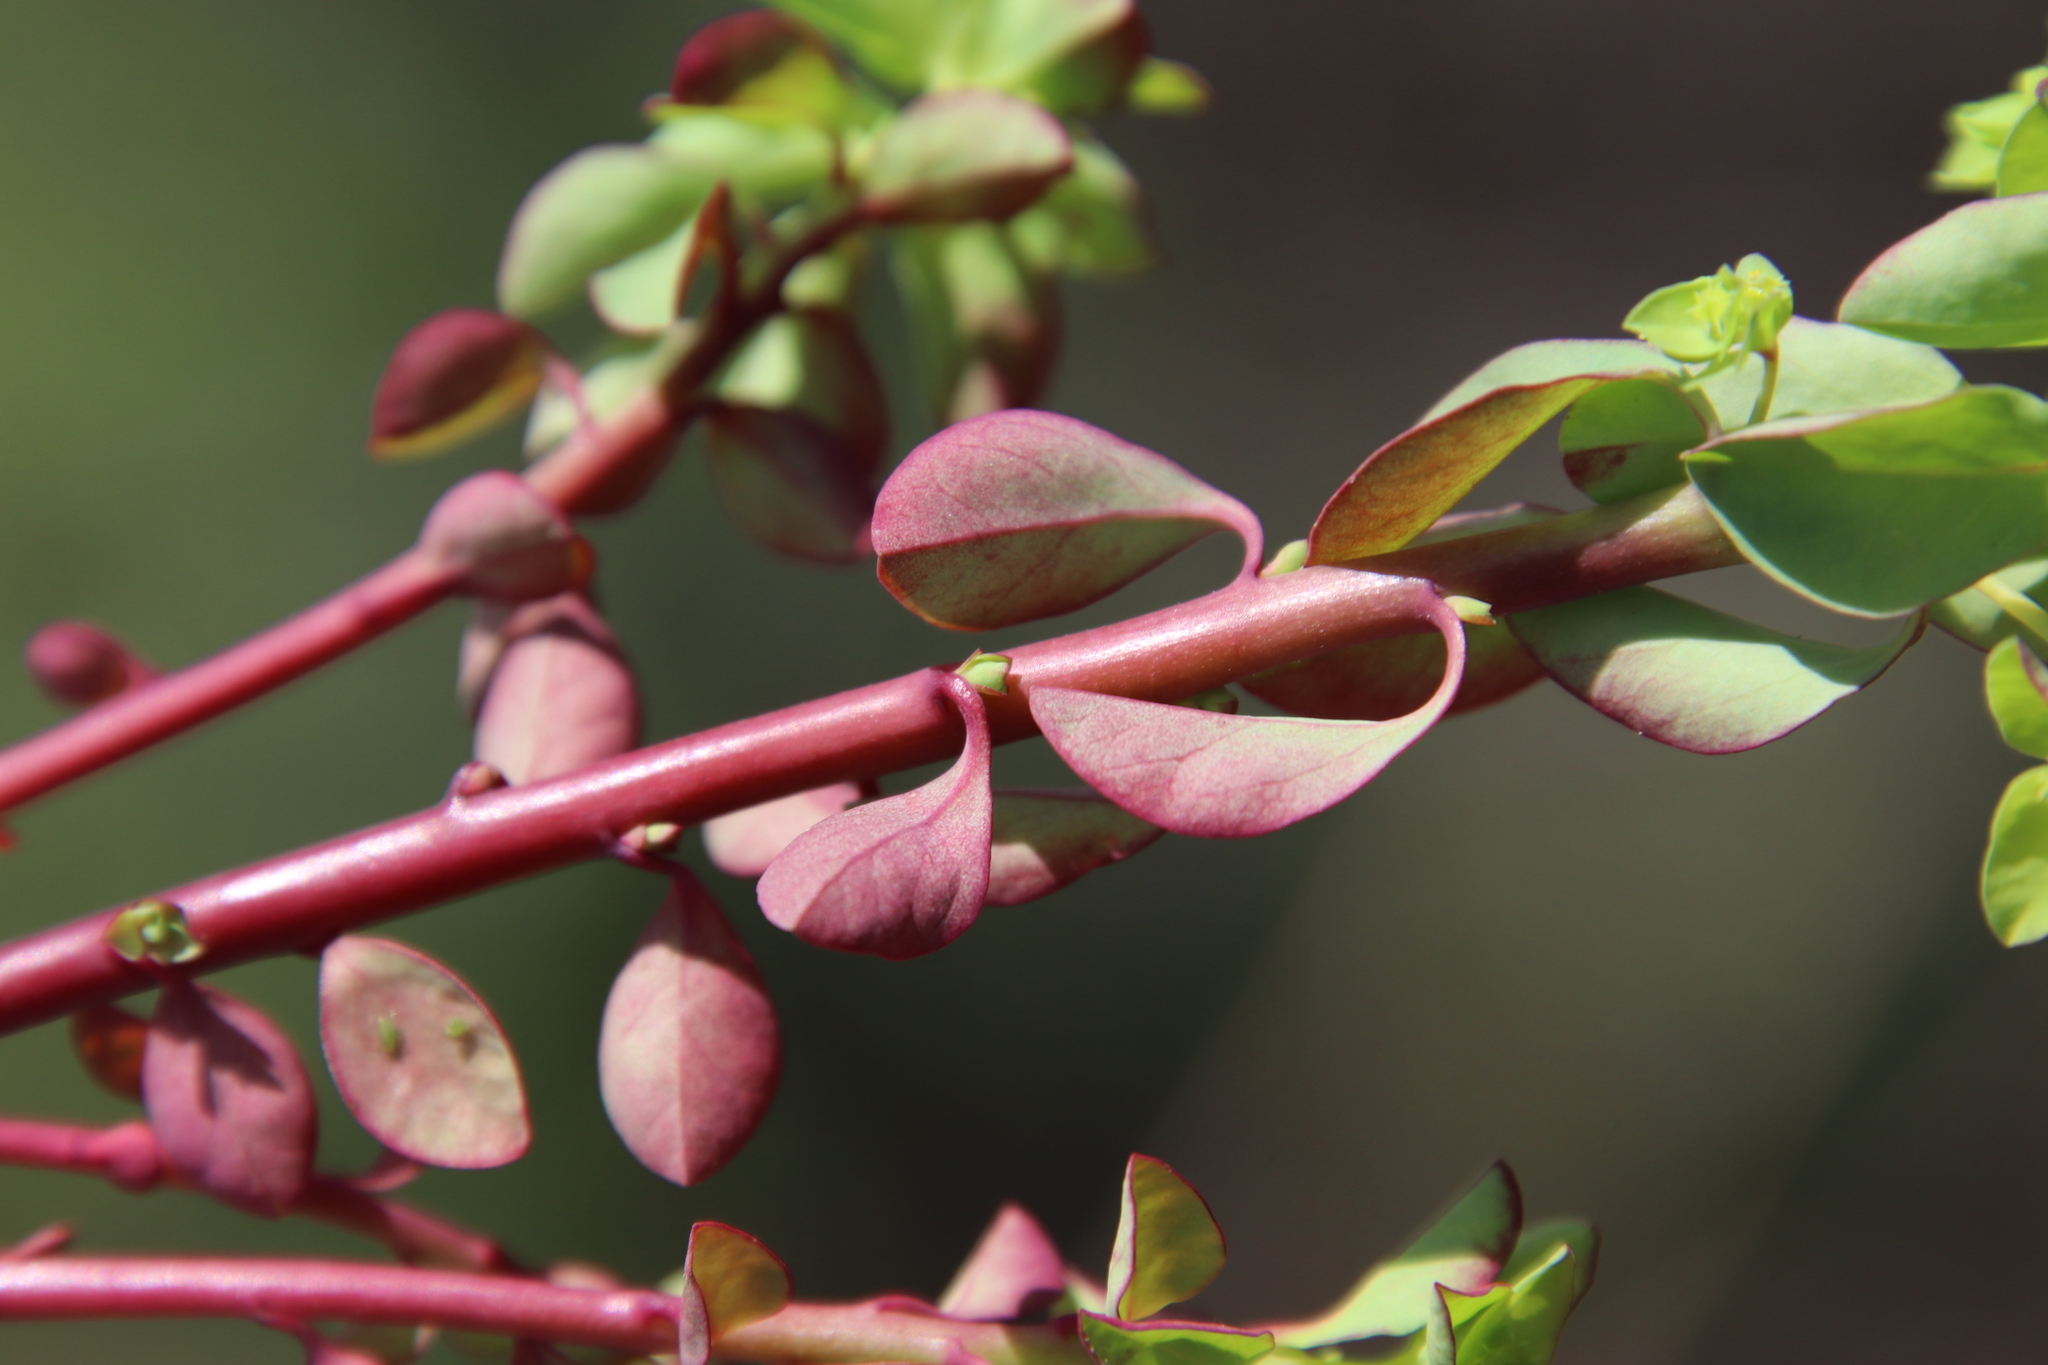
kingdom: Plantae
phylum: Tracheophyta
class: Magnoliopsida
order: Malpighiales
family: Euphorbiaceae
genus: Euphorbia
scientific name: Euphorbia peplus
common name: Petty spurge
